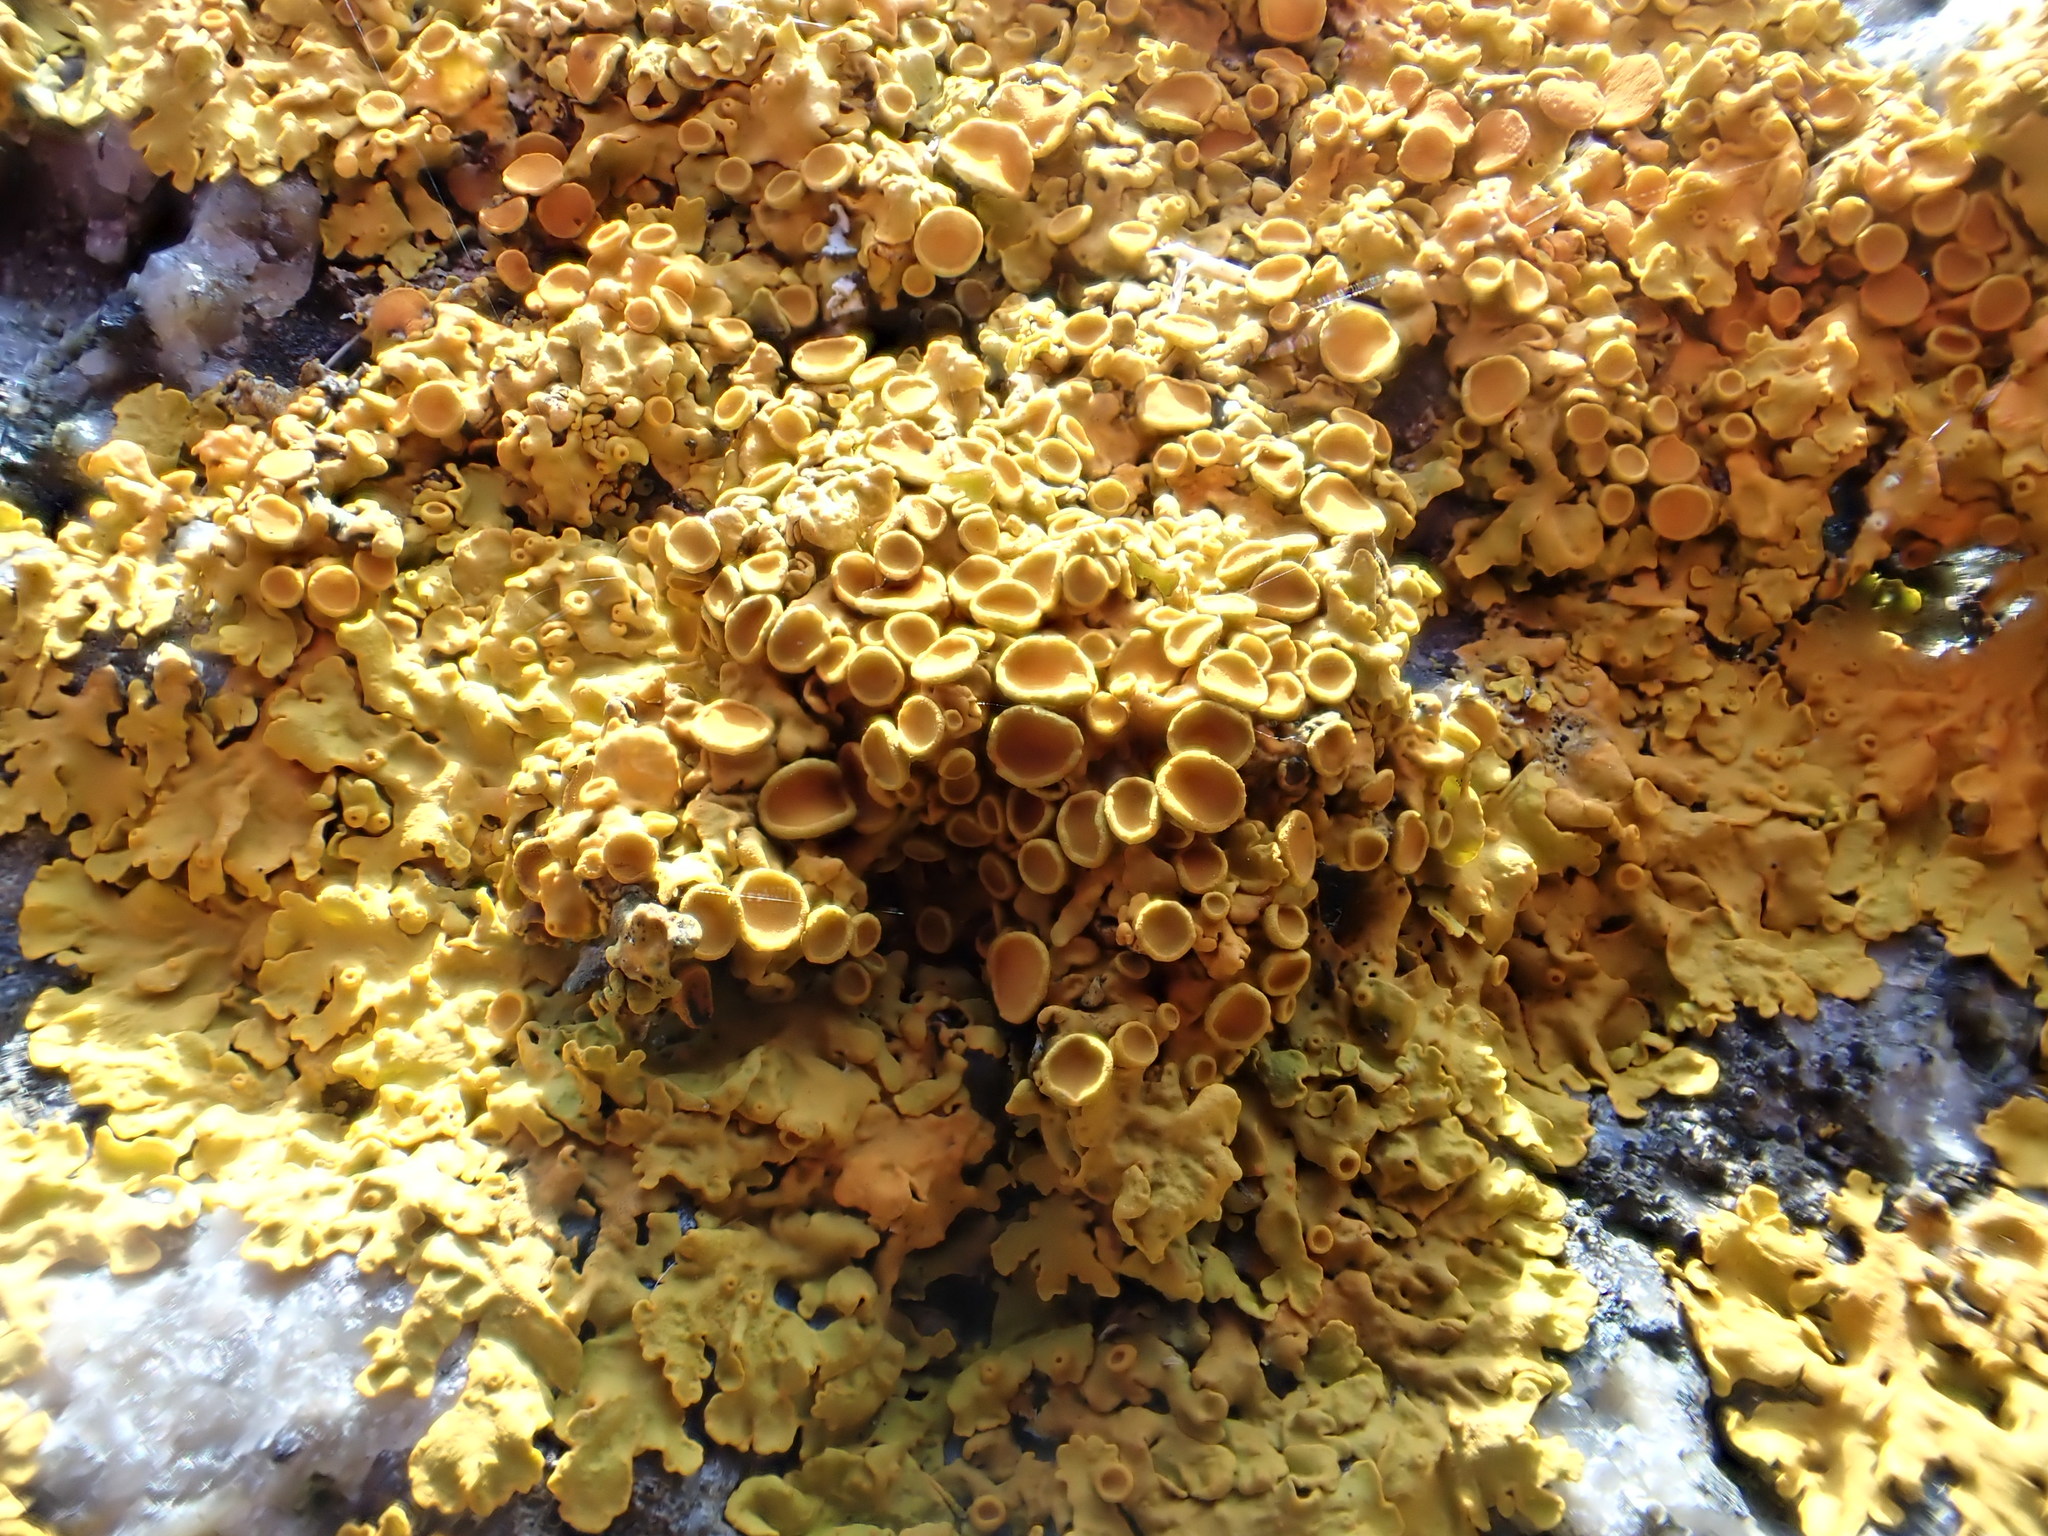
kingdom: Fungi
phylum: Ascomycota
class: Lecanoromycetes
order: Teloschistales
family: Teloschistaceae
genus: Xanthoria
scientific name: Xanthoria parietina
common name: Common orange lichen
